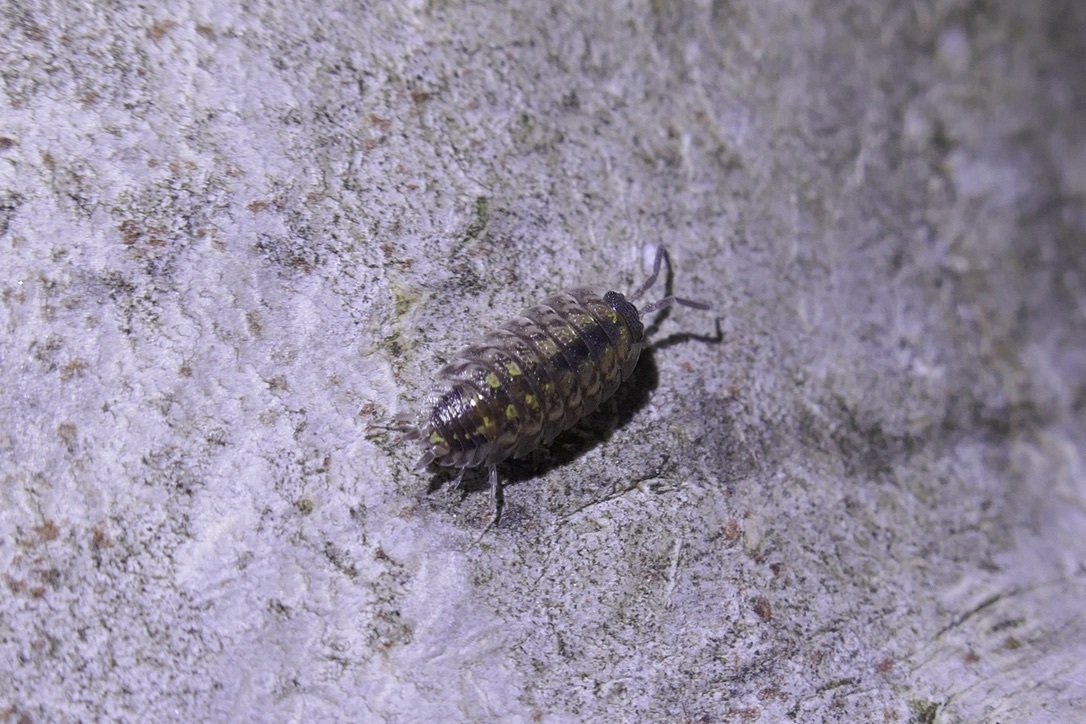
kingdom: Animalia
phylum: Arthropoda
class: Malacostraca
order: Isopoda
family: Porcellionidae
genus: Porcellio
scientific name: Porcellio spinicornis
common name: Painted woodlouse
